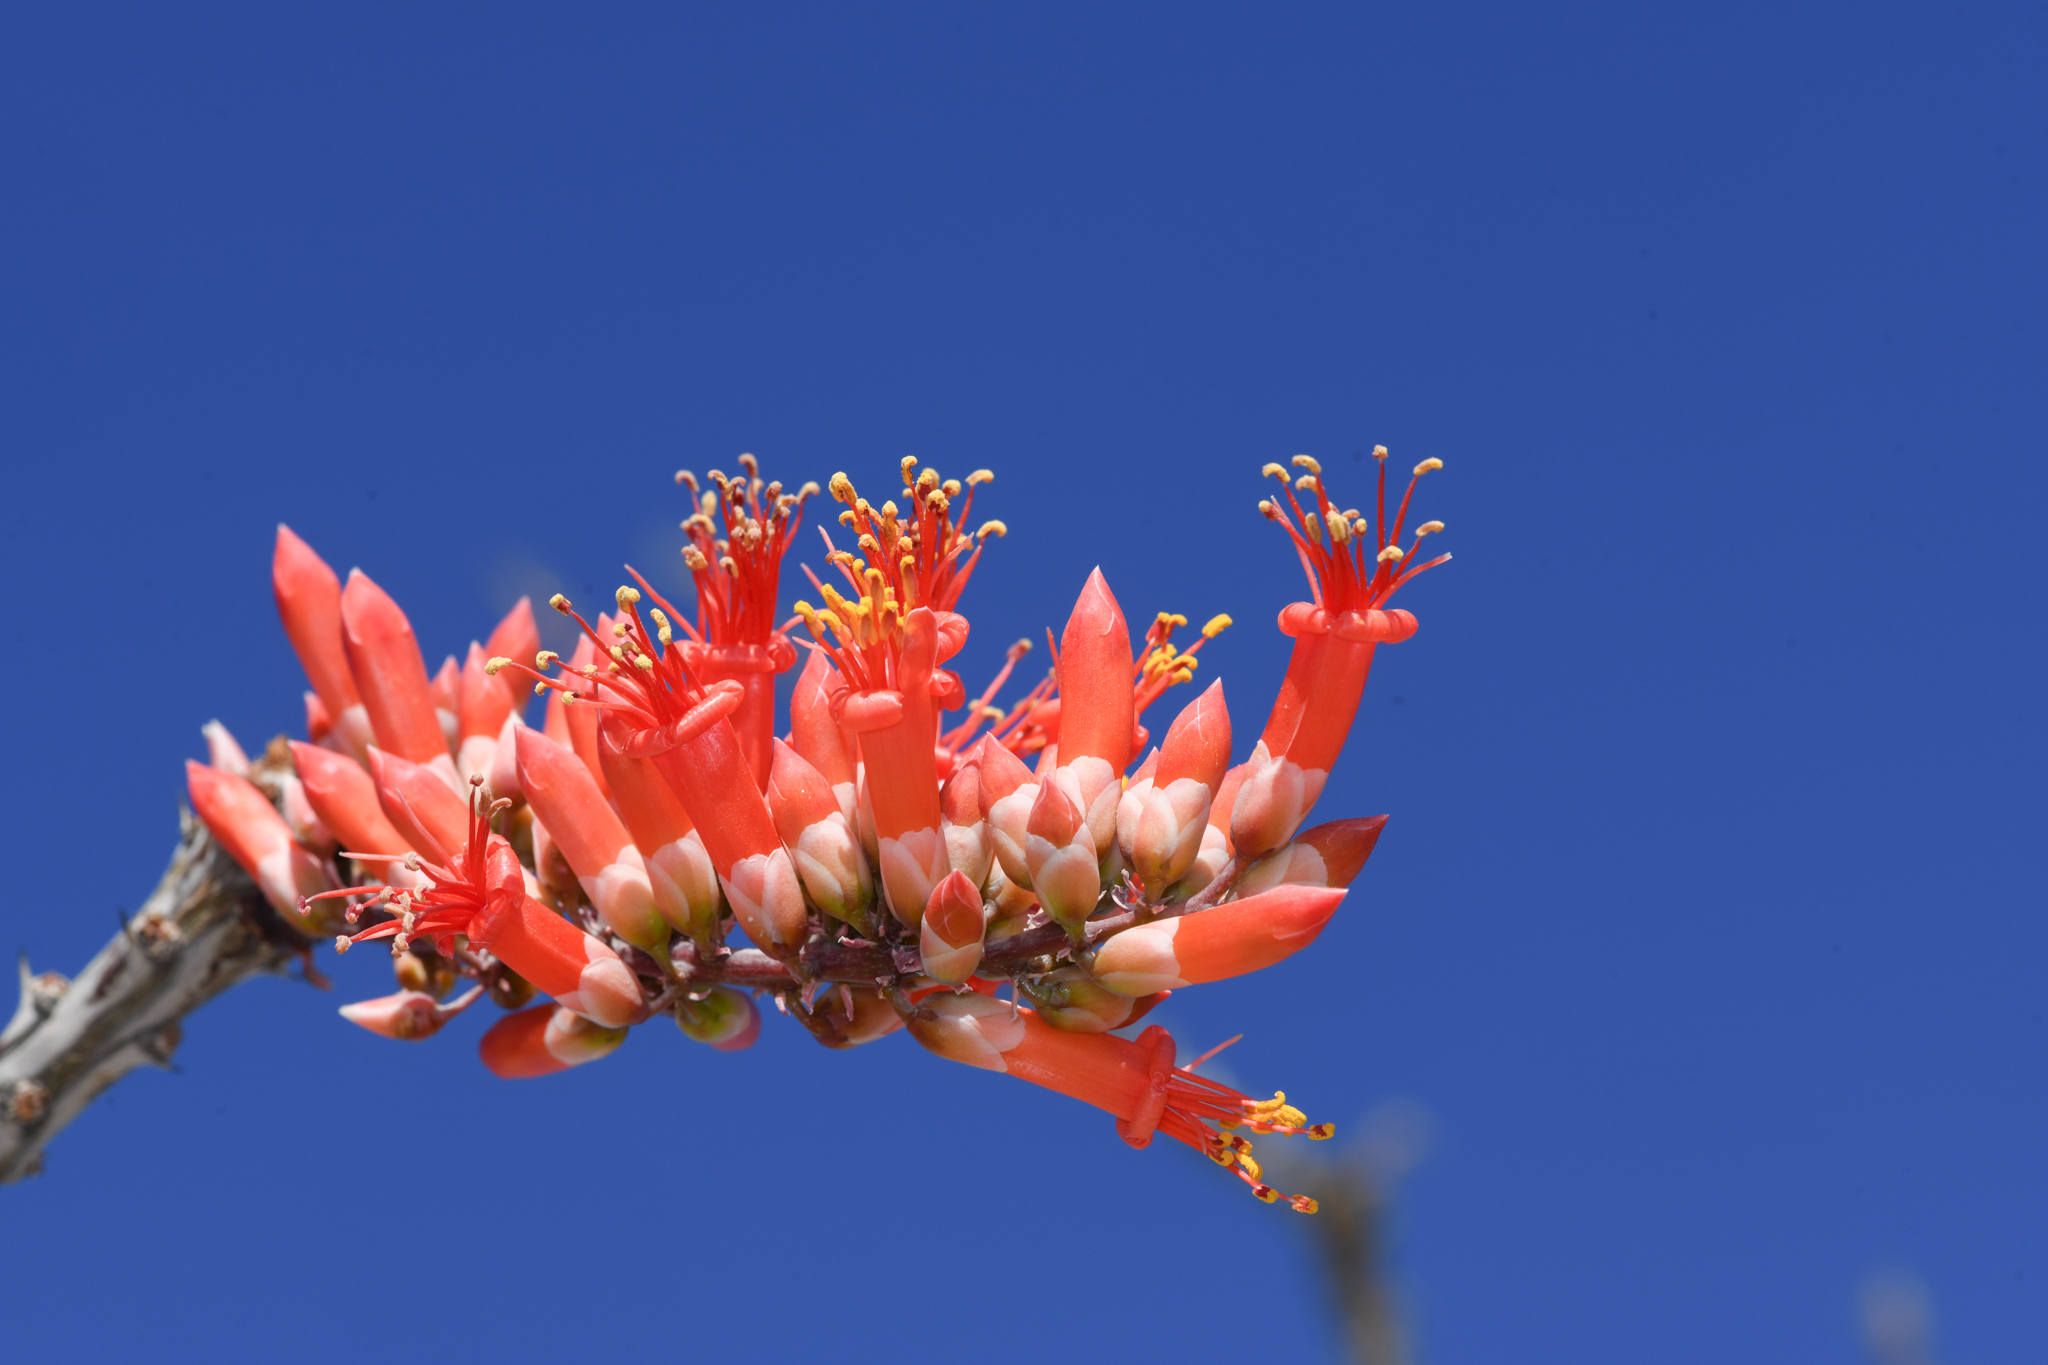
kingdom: Plantae
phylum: Tracheophyta
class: Magnoliopsida
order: Ericales
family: Fouquieriaceae
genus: Fouquieria
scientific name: Fouquieria splendens
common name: Vine-cactus
